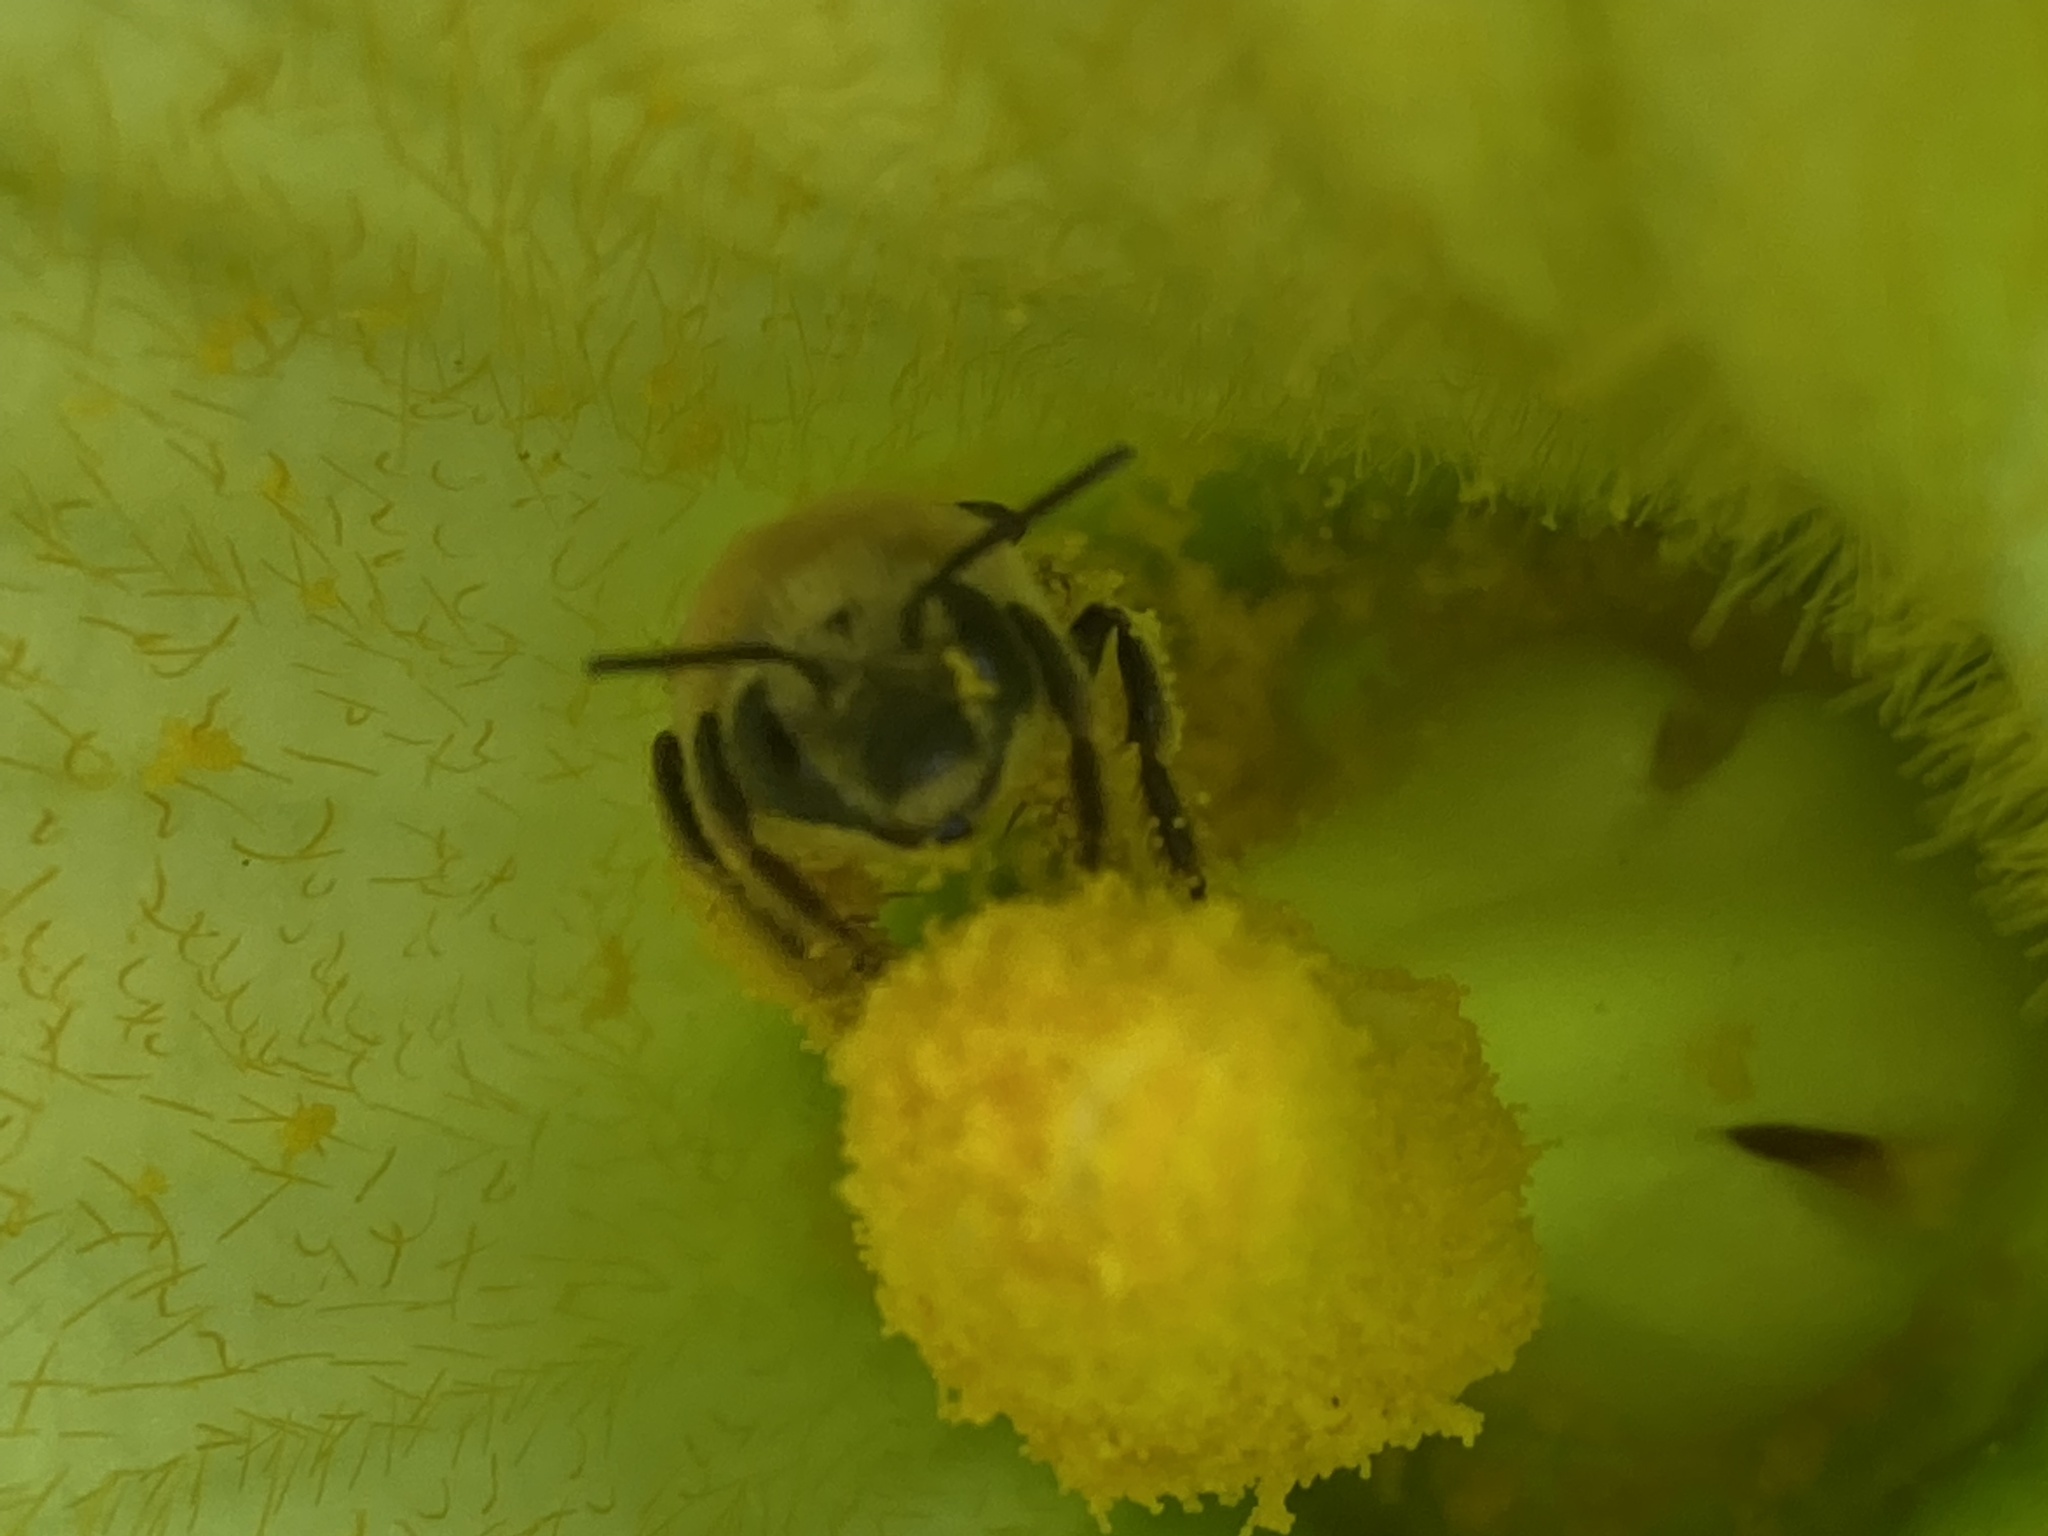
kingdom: Animalia
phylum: Arthropoda
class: Insecta
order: Hymenoptera
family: Apidae
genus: Peponapis
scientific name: Peponapis pruinosa
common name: Pruinose squash bee
